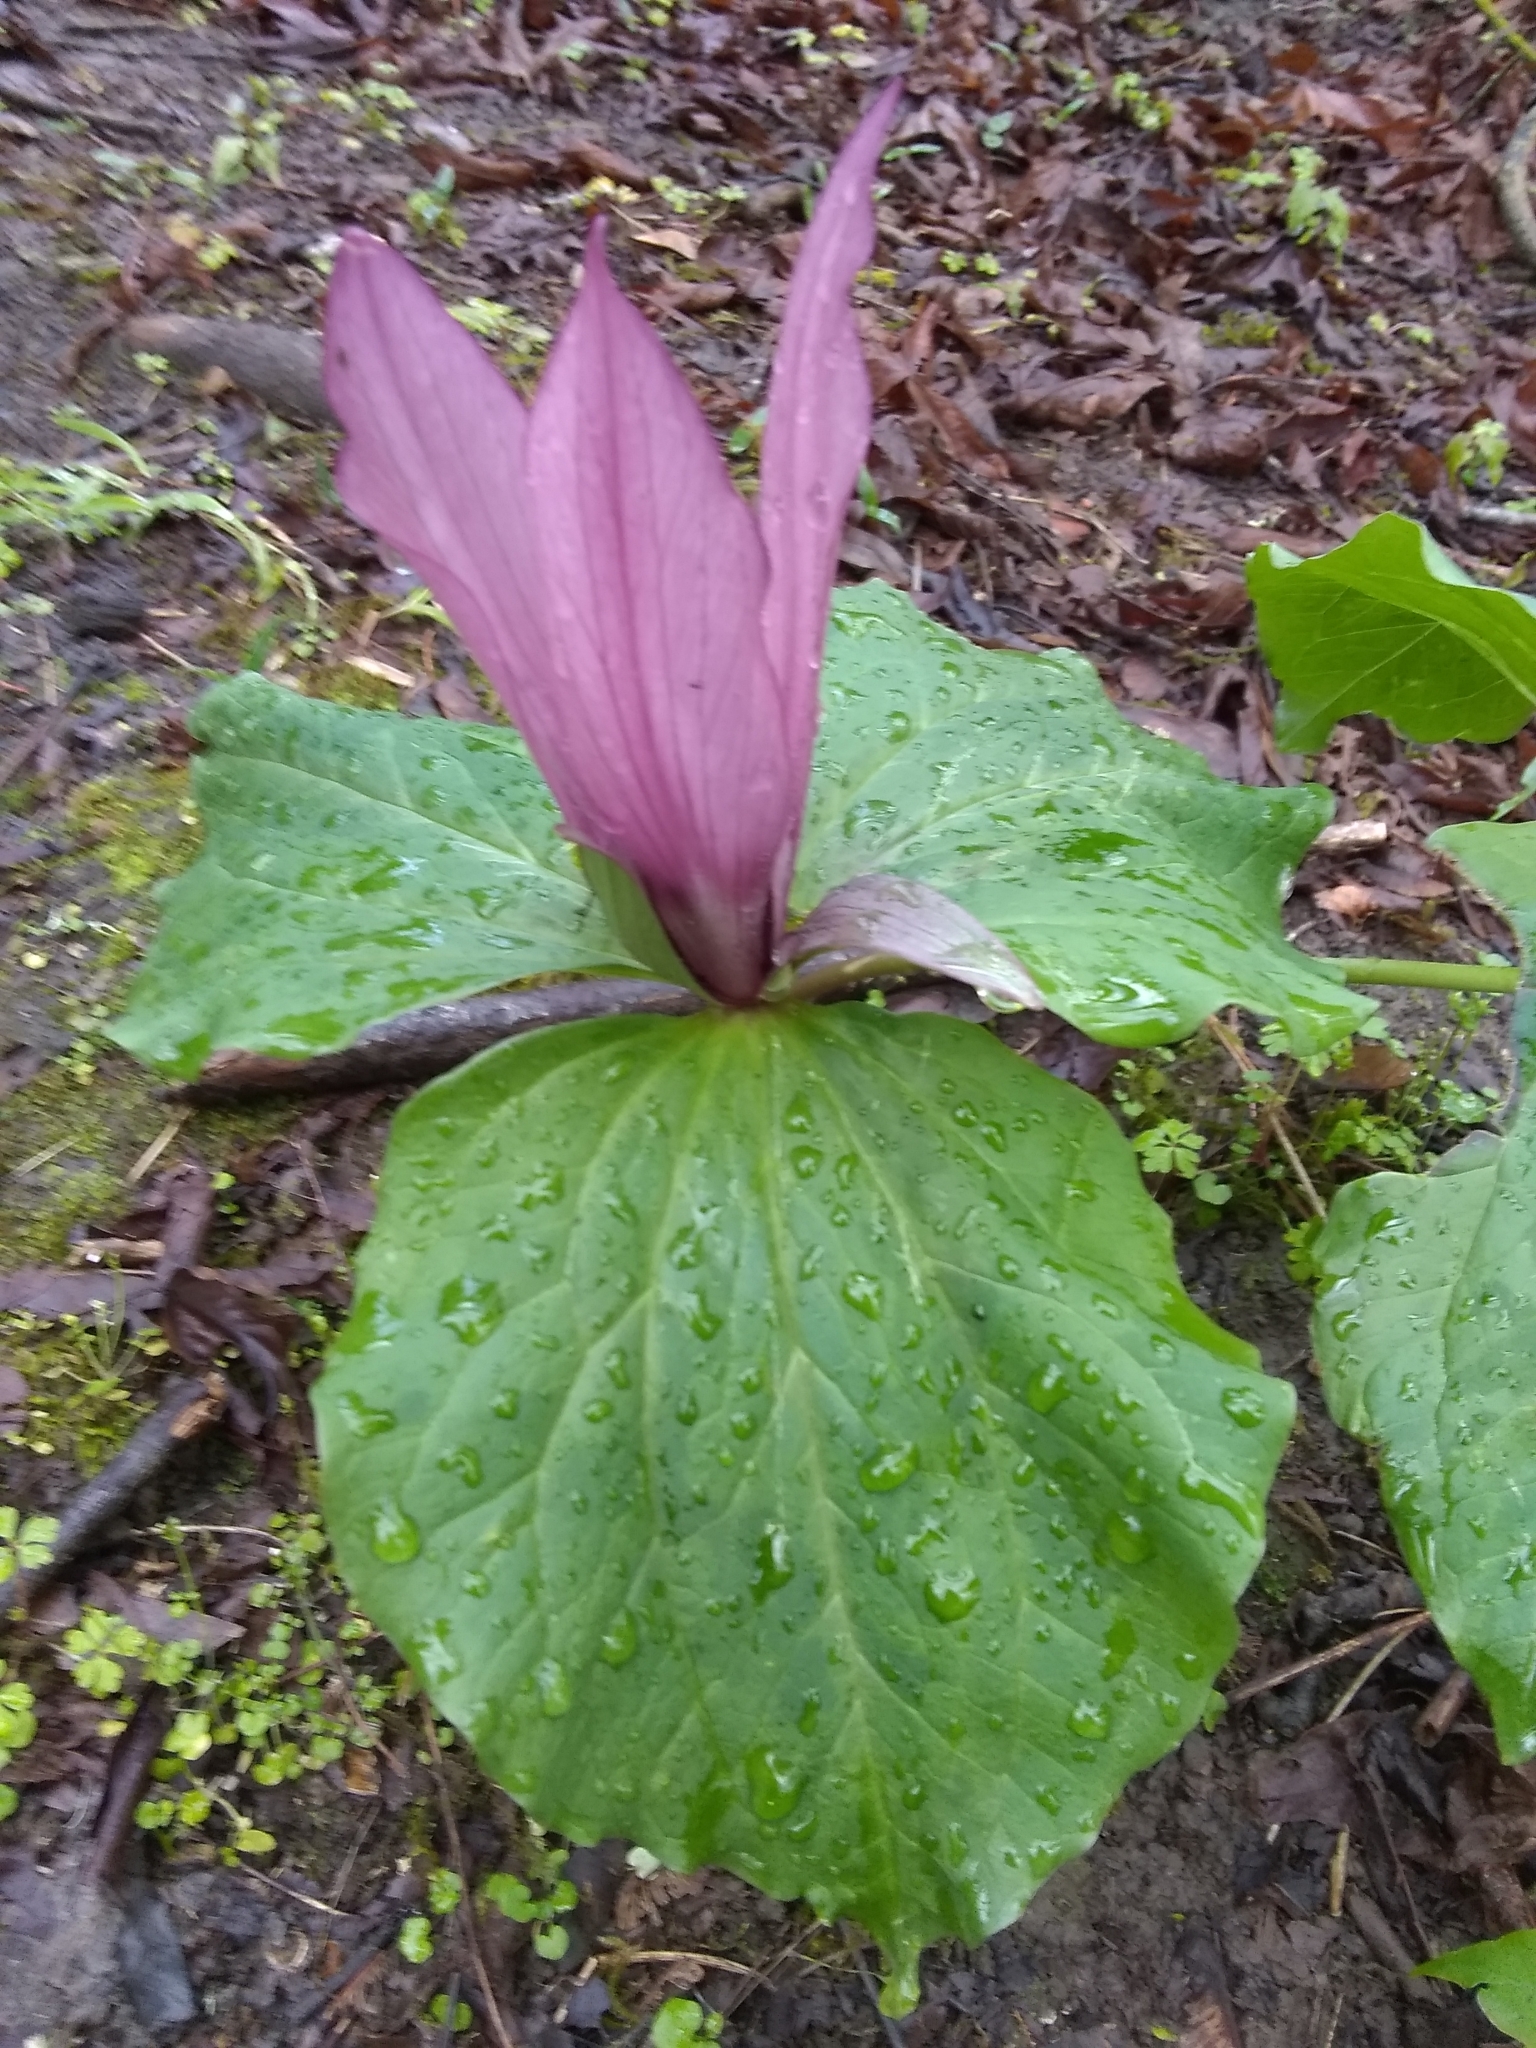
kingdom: Plantae
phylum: Tracheophyta
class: Liliopsida
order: Liliales
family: Melanthiaceae
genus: Trillium
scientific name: Trillium chloropetalum
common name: Giant trillium
